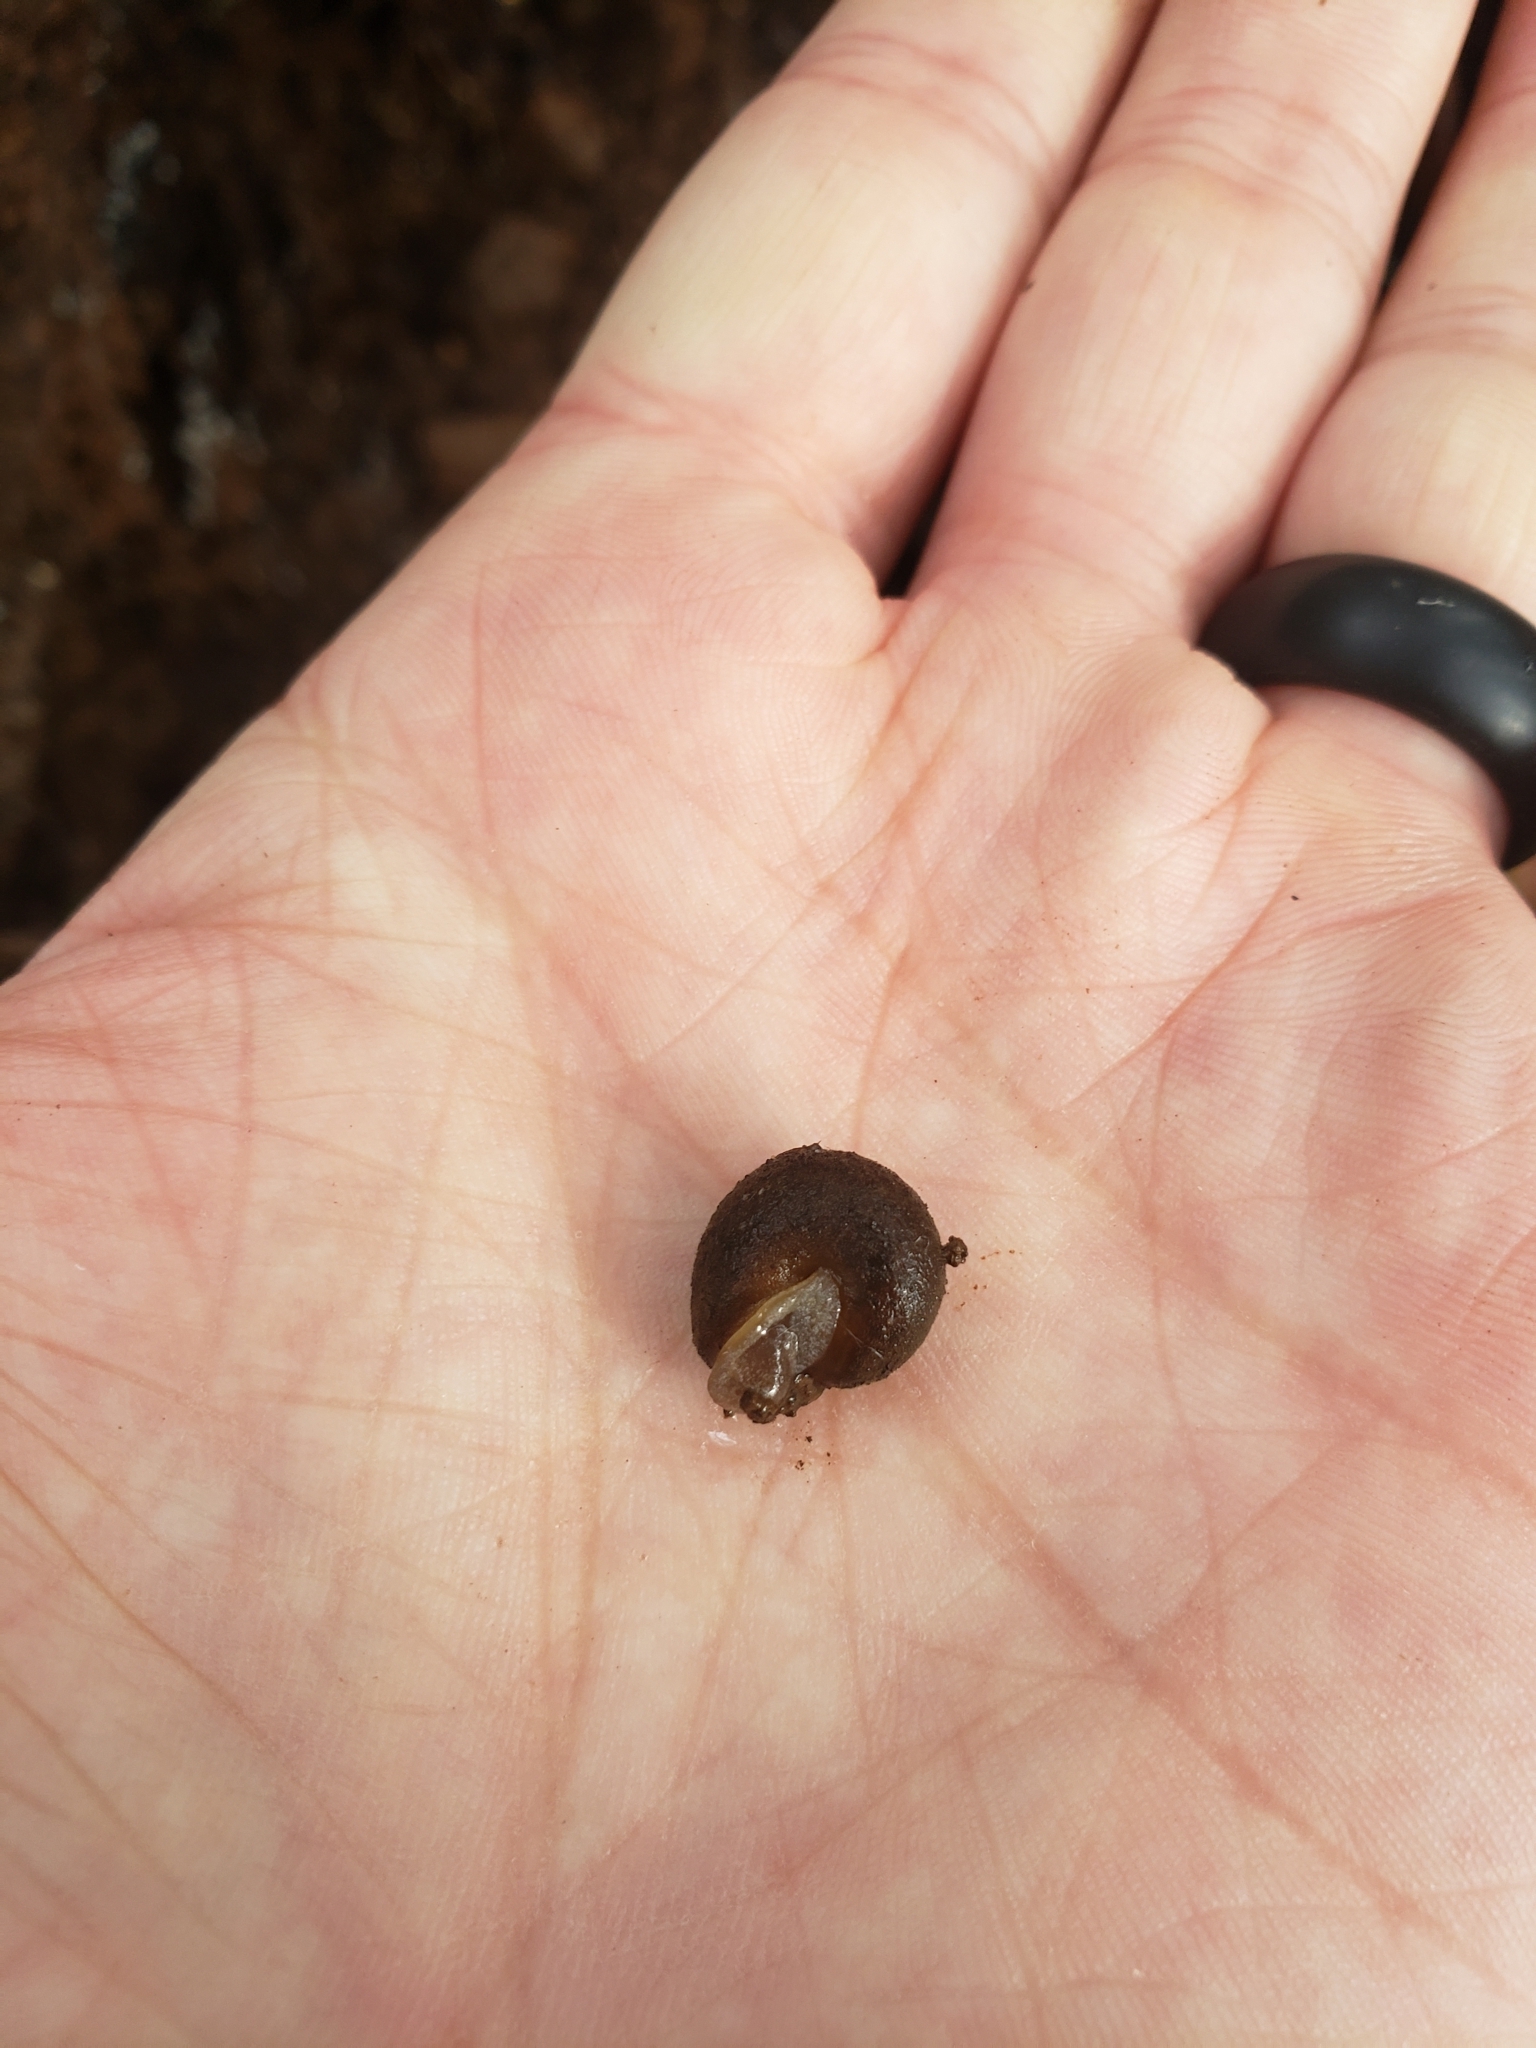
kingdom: Animalia
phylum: Mollusca
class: Gastropoda
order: Stylommatophora
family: Polygyridae
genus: Vespericola
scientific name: Vespericola columbianus
